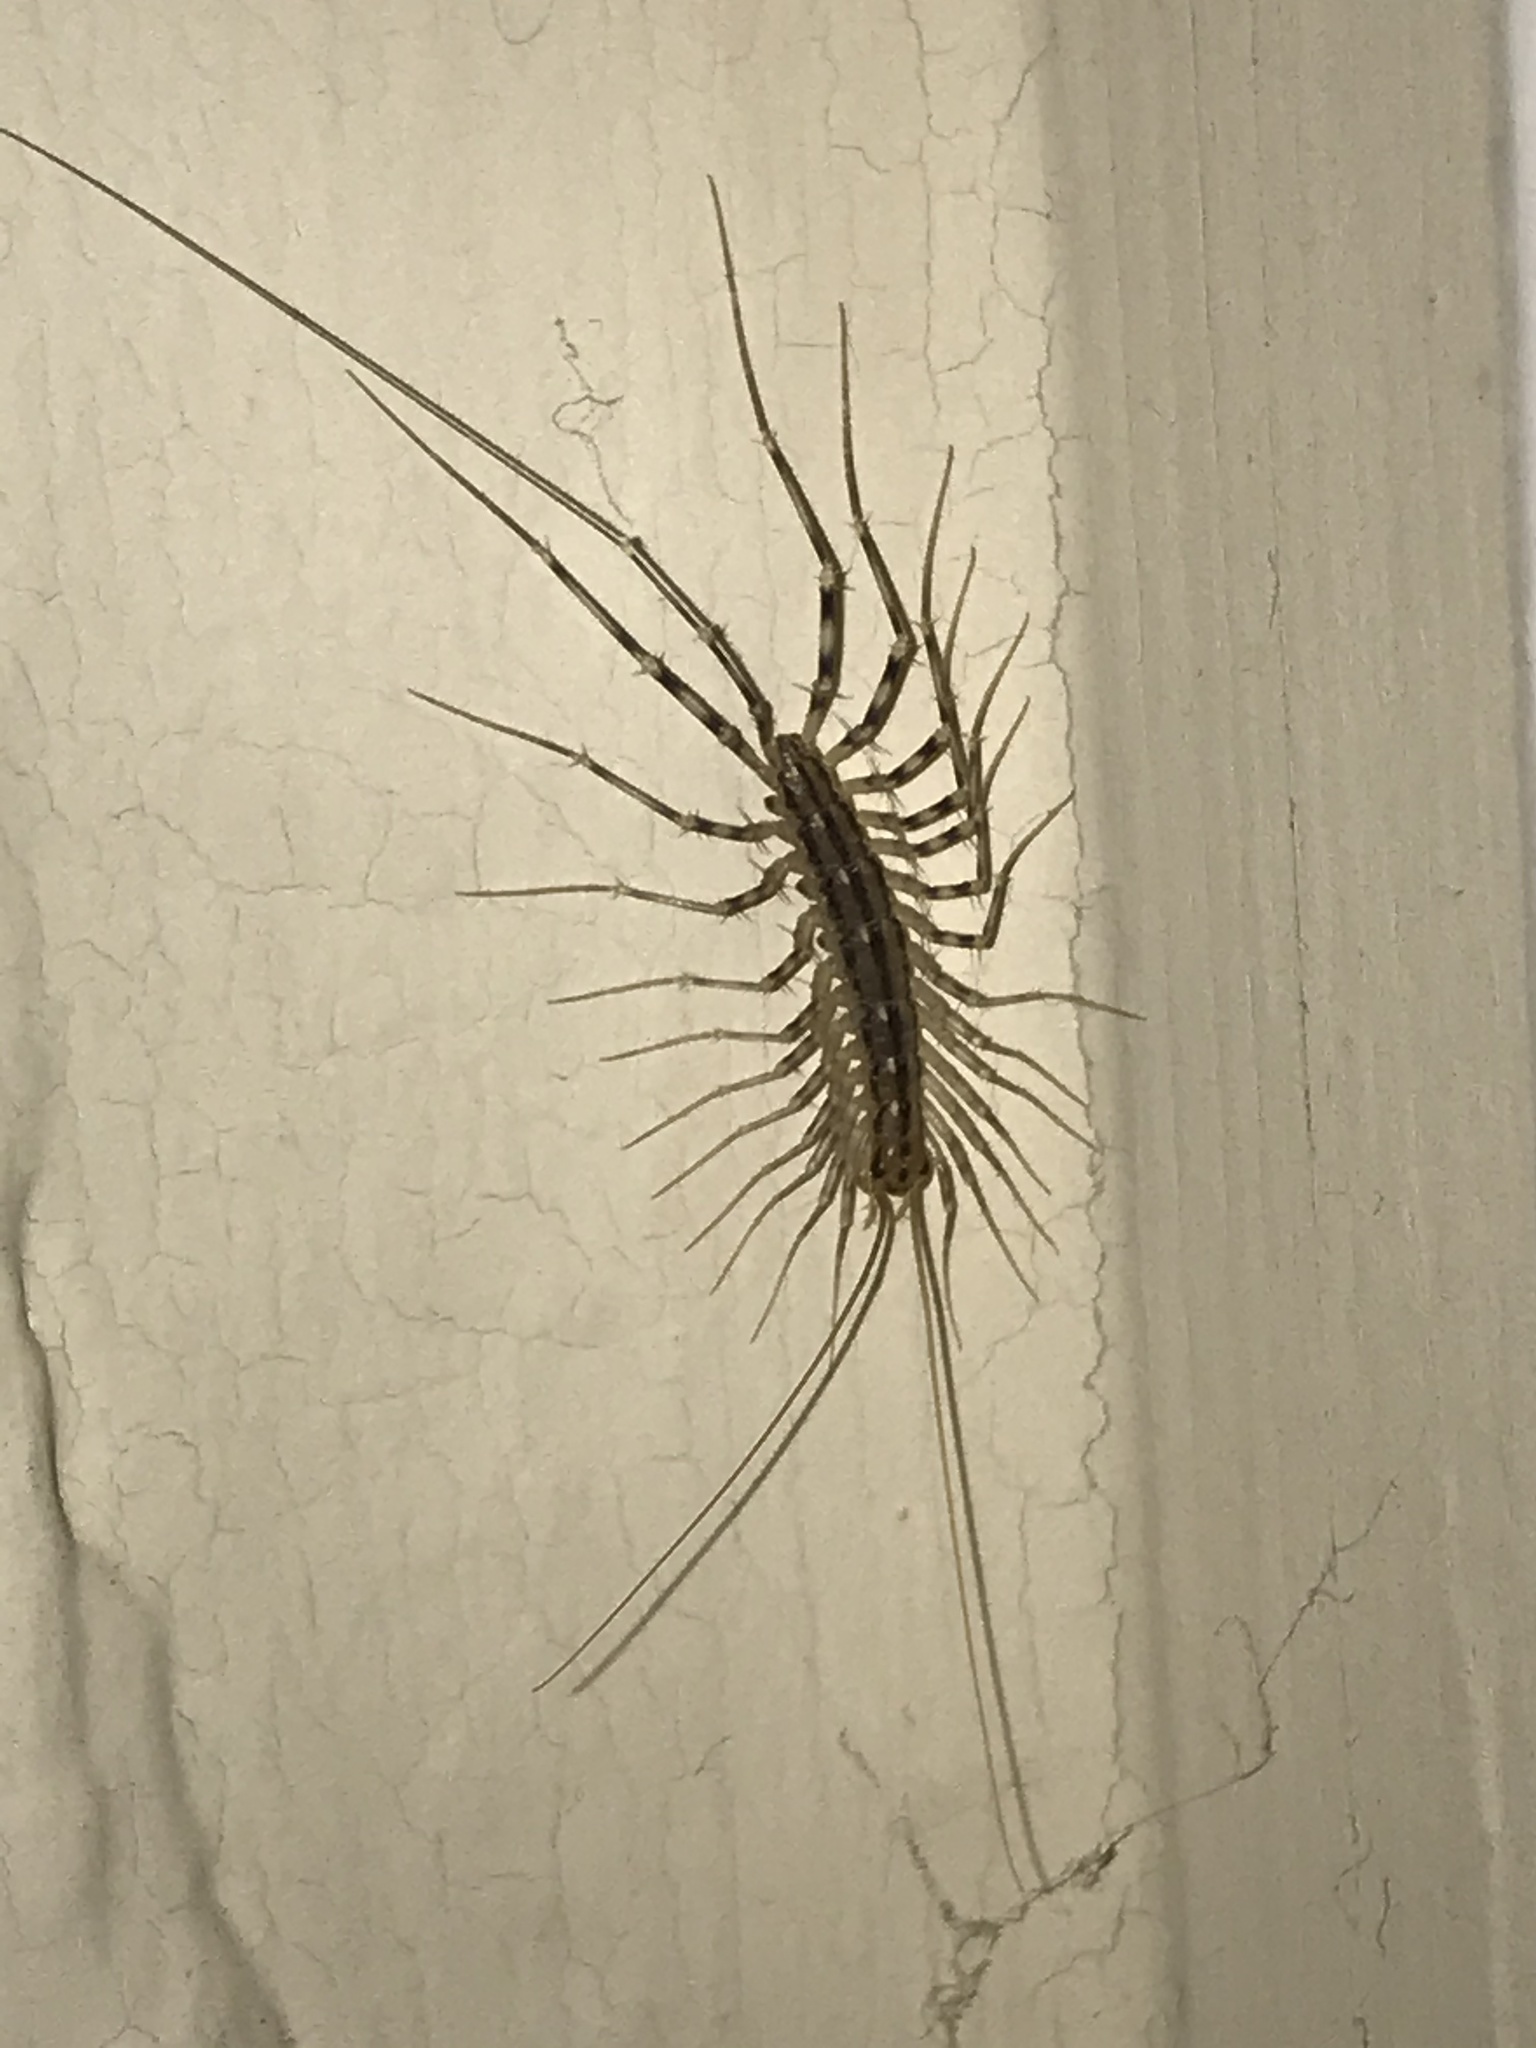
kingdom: Animalia
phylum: Arthropoda
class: Chilopoda
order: Scutigeromorpha
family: Scutigeridae
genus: Scutigera
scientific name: Scutigera coleoptrata
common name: House centipede
